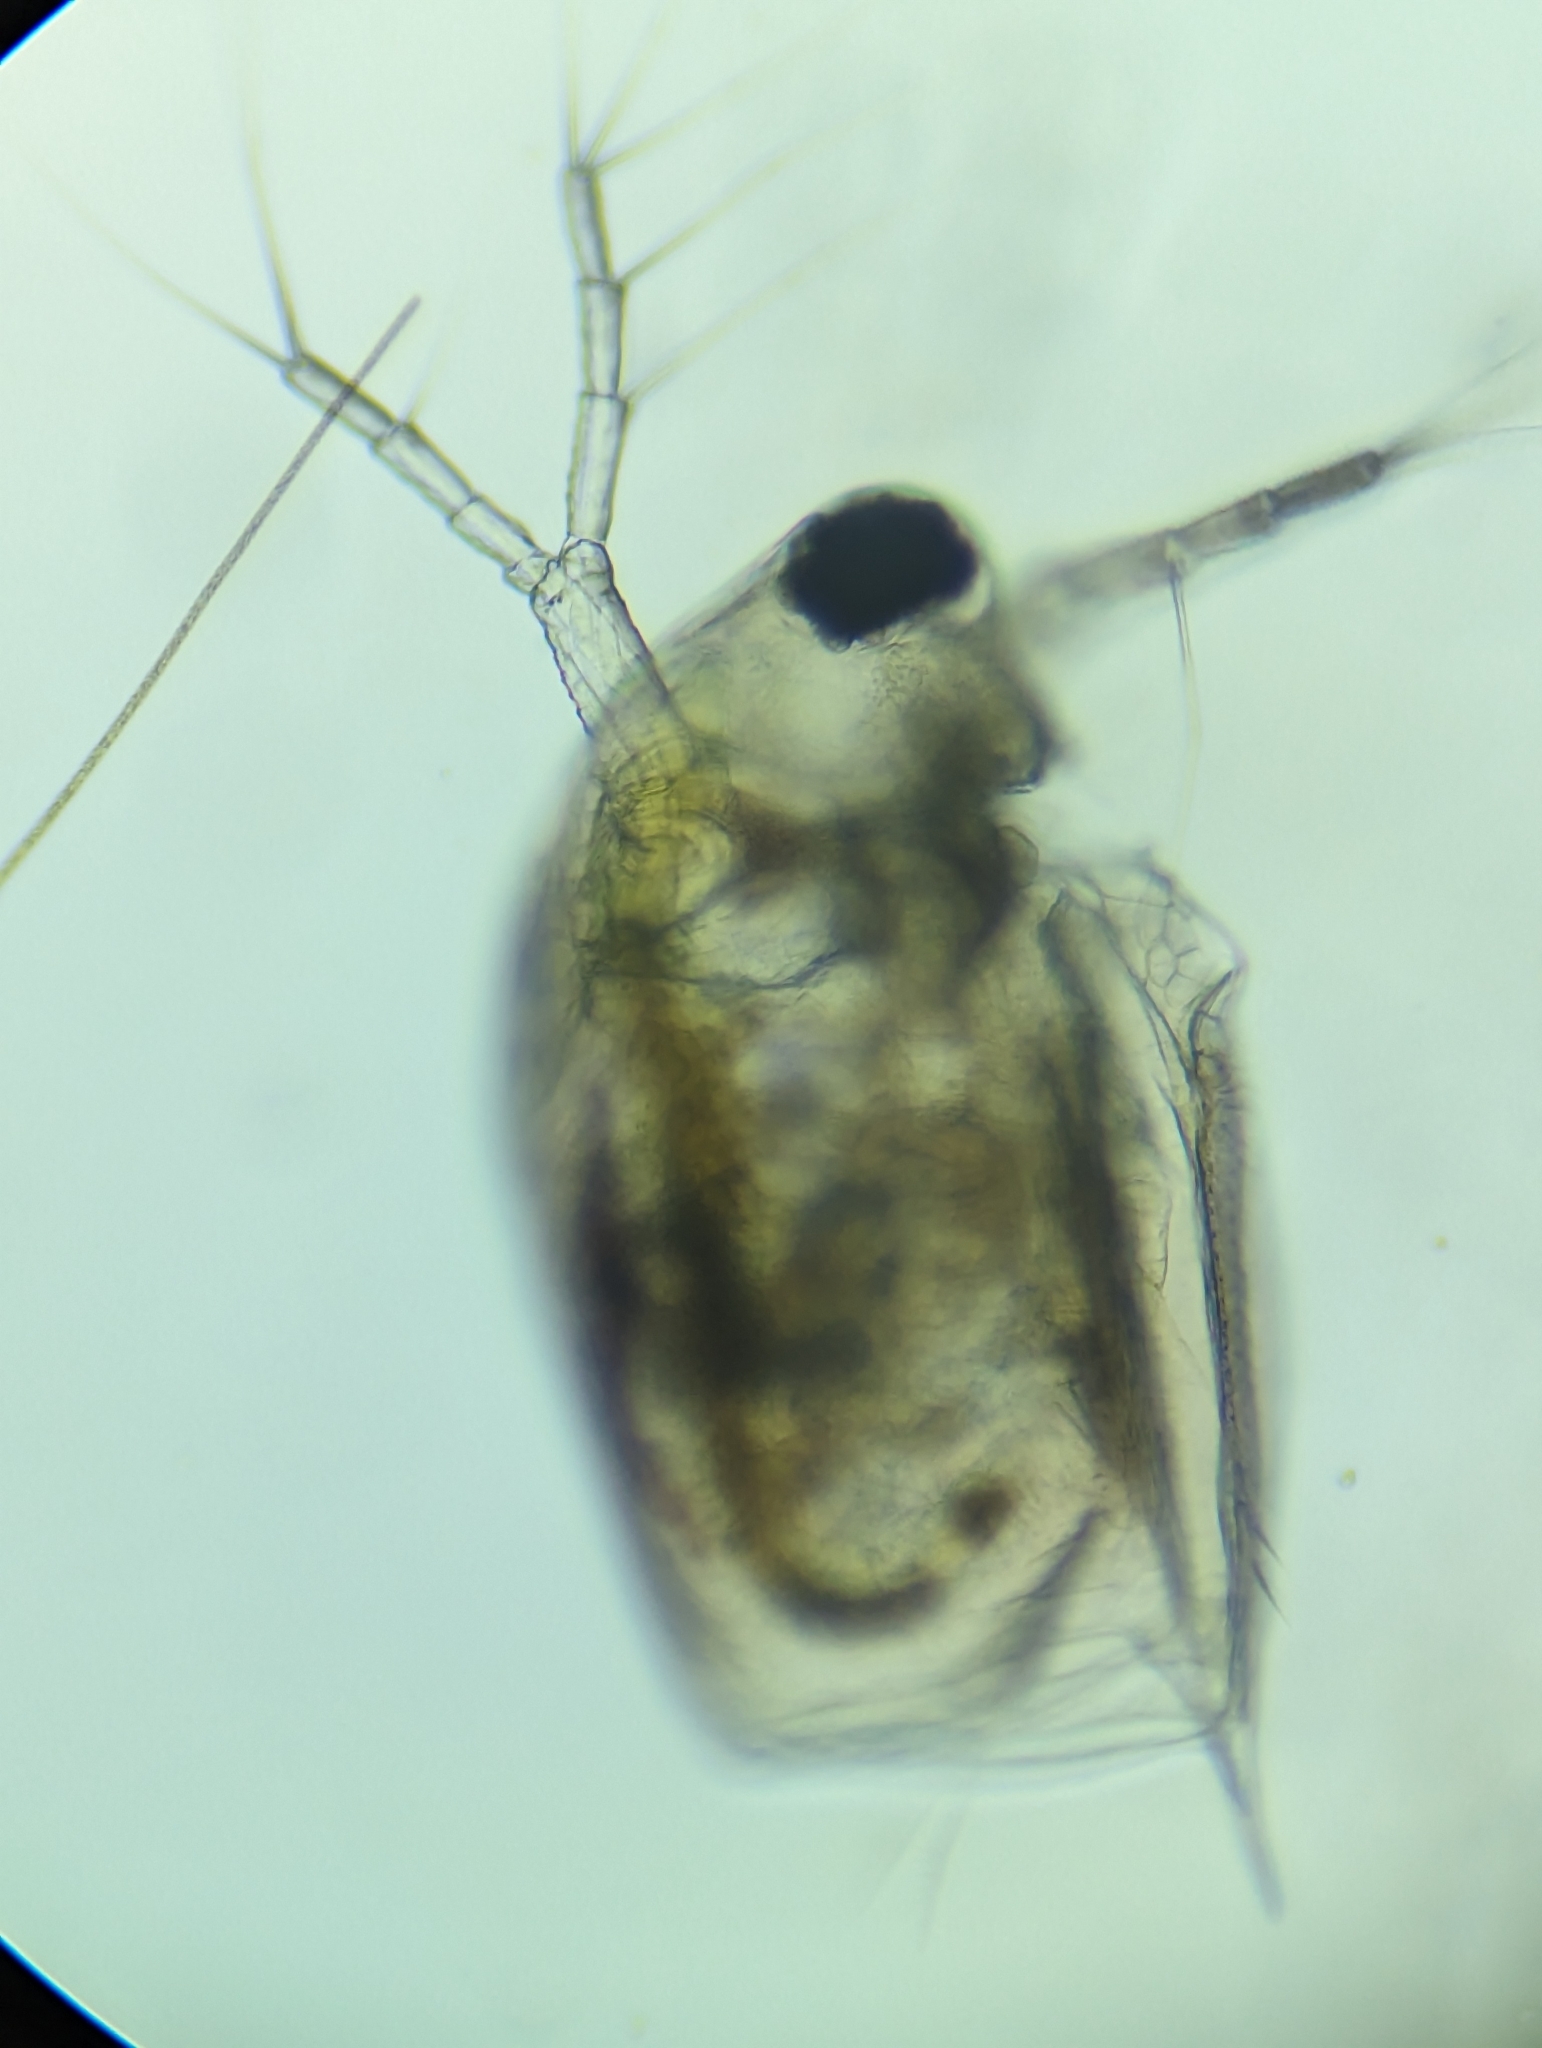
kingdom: Animalia
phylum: Arthropoda
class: Branchiopoda
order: Diplostraca
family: Daphniidae
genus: Scapholeberis
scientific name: Scapholeberis armata
